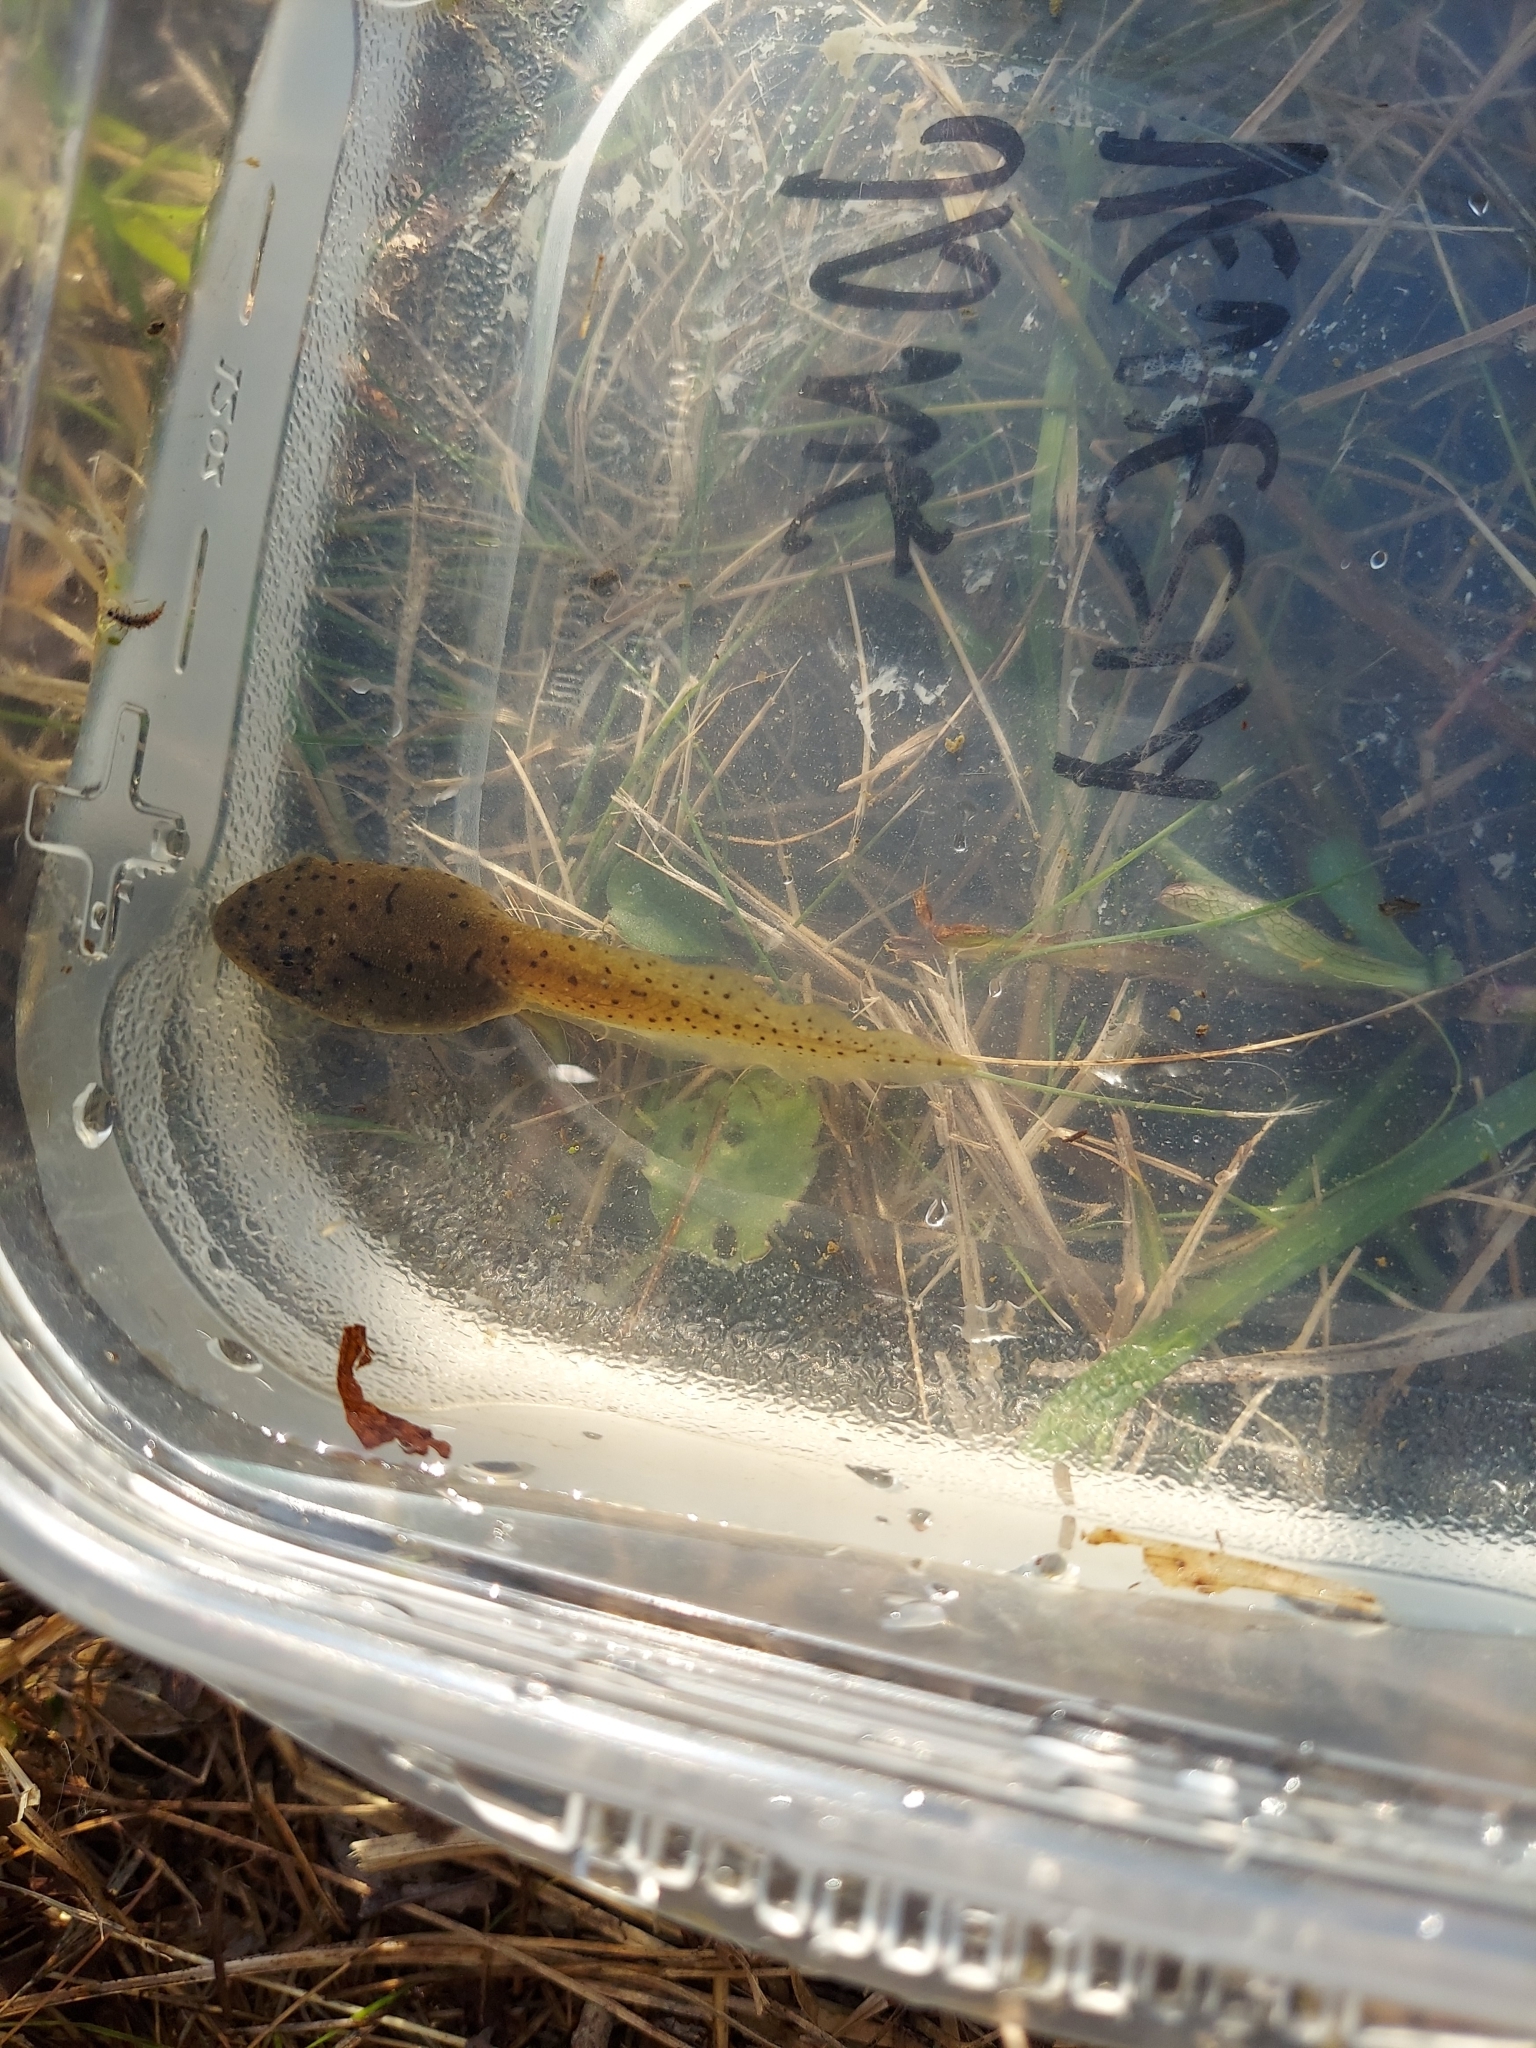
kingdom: Animalia
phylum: Chordata
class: Amphibia
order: Anura
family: Ranidae
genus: Lithobates
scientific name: Lithobates catesbeianus
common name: American bullfrog
